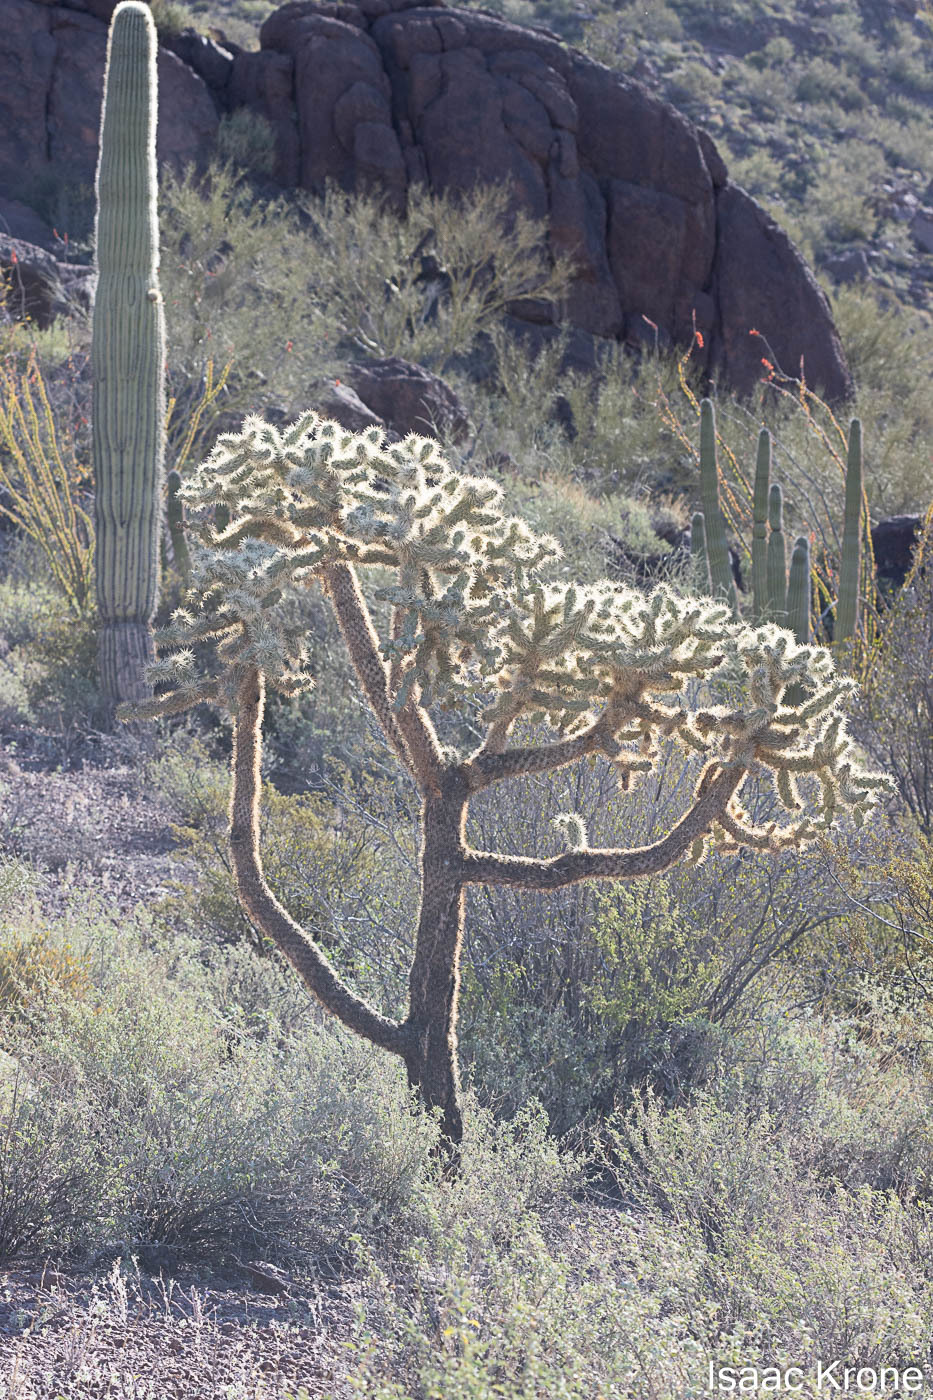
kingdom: Plantae
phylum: Tracheophyta
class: Magnoliopsida
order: Caryophyllales
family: Cactaceae
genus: Cylindropuntia
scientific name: Cylindropuntia fulgida
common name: Jumping cholla
